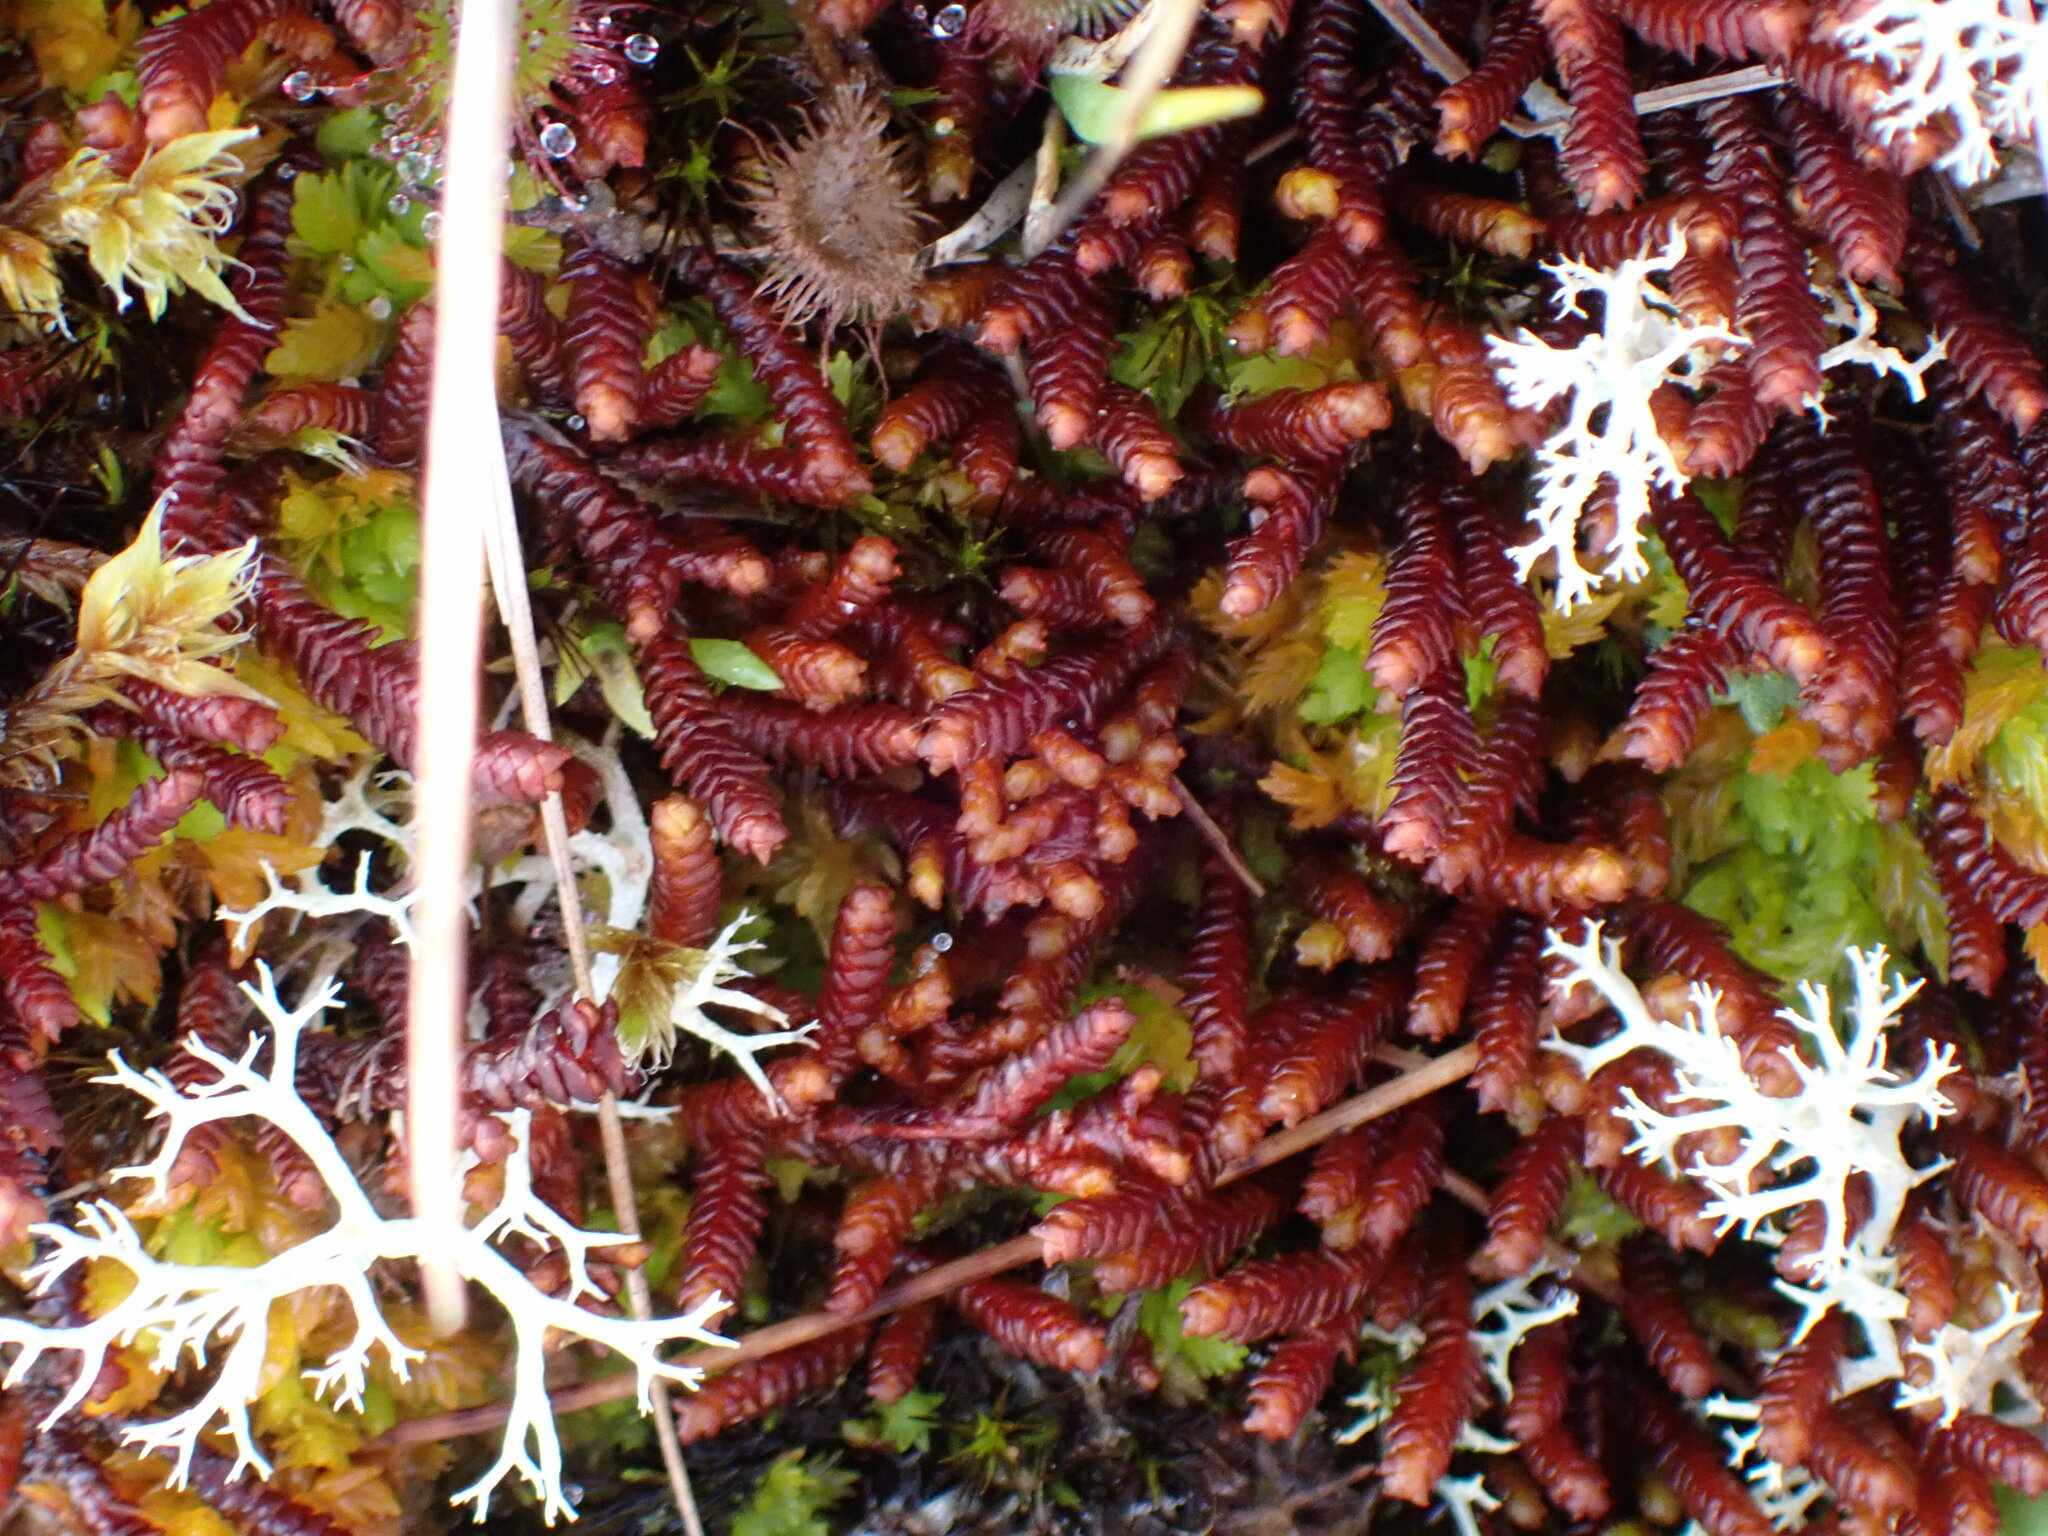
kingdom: Plantae
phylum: Marchantiophyta
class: Jungermanniopsida
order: Pleuroziales
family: Pleuroziaceae
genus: Pleurozia
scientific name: Pleurozia purpurea
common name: Purple spoonwort
